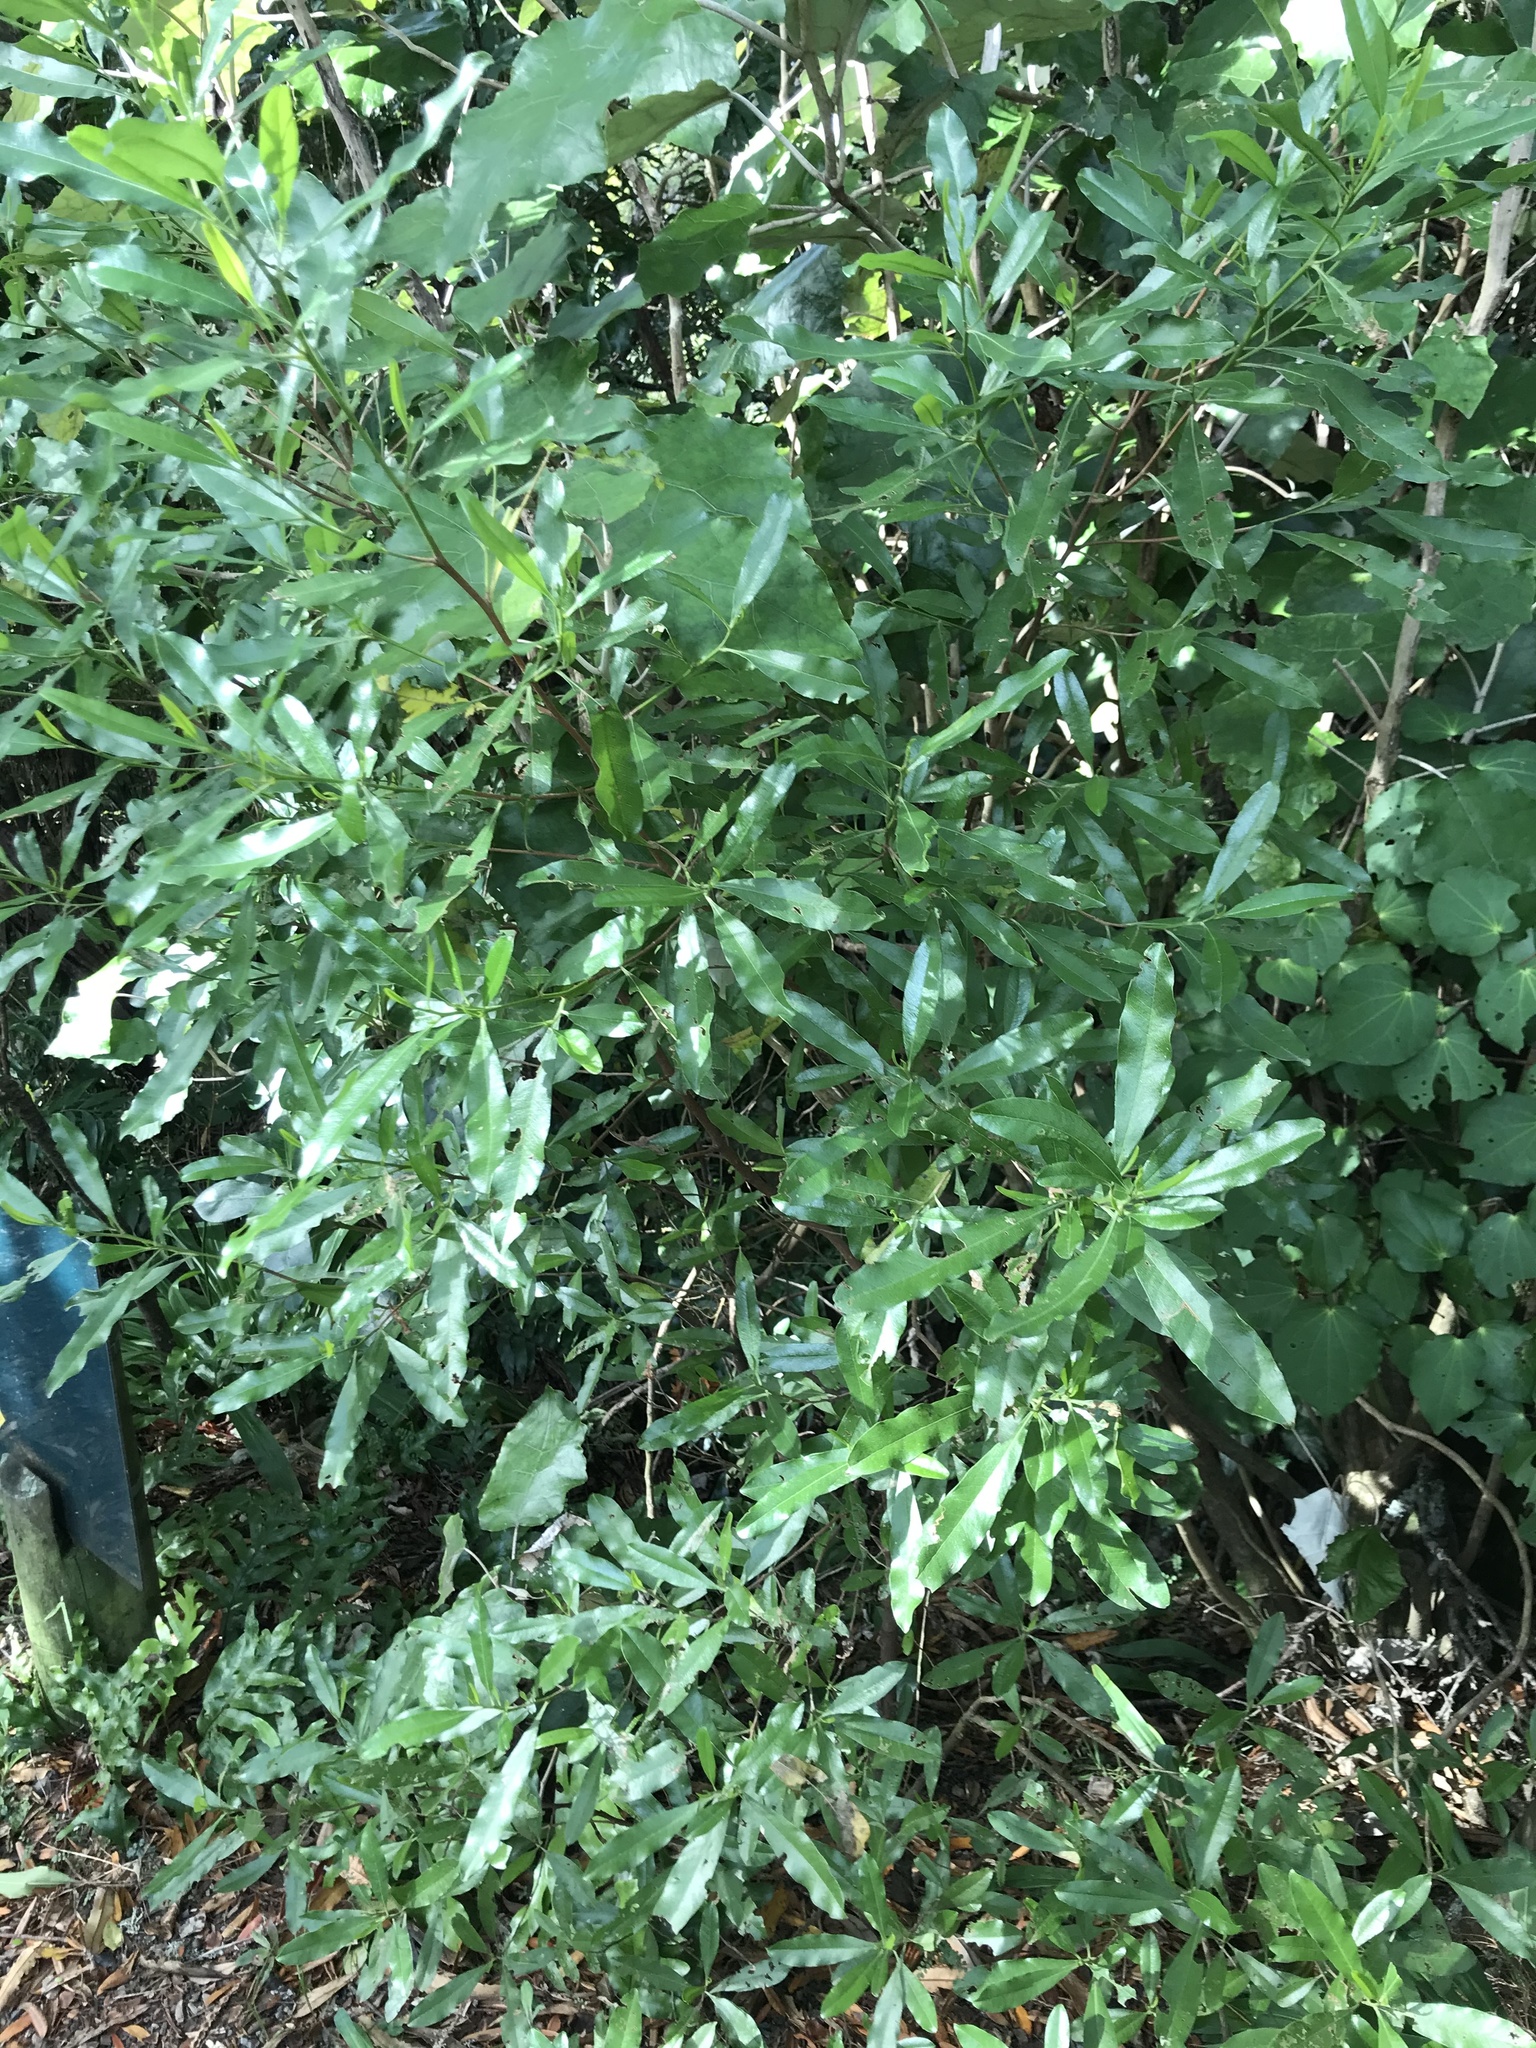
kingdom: Plantae
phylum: Tracheophyta
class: Magnoliopsida
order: Sapindales
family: Sapindaceae
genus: Dodonaea
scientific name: Dodonaea viscosa
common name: Hopbush
